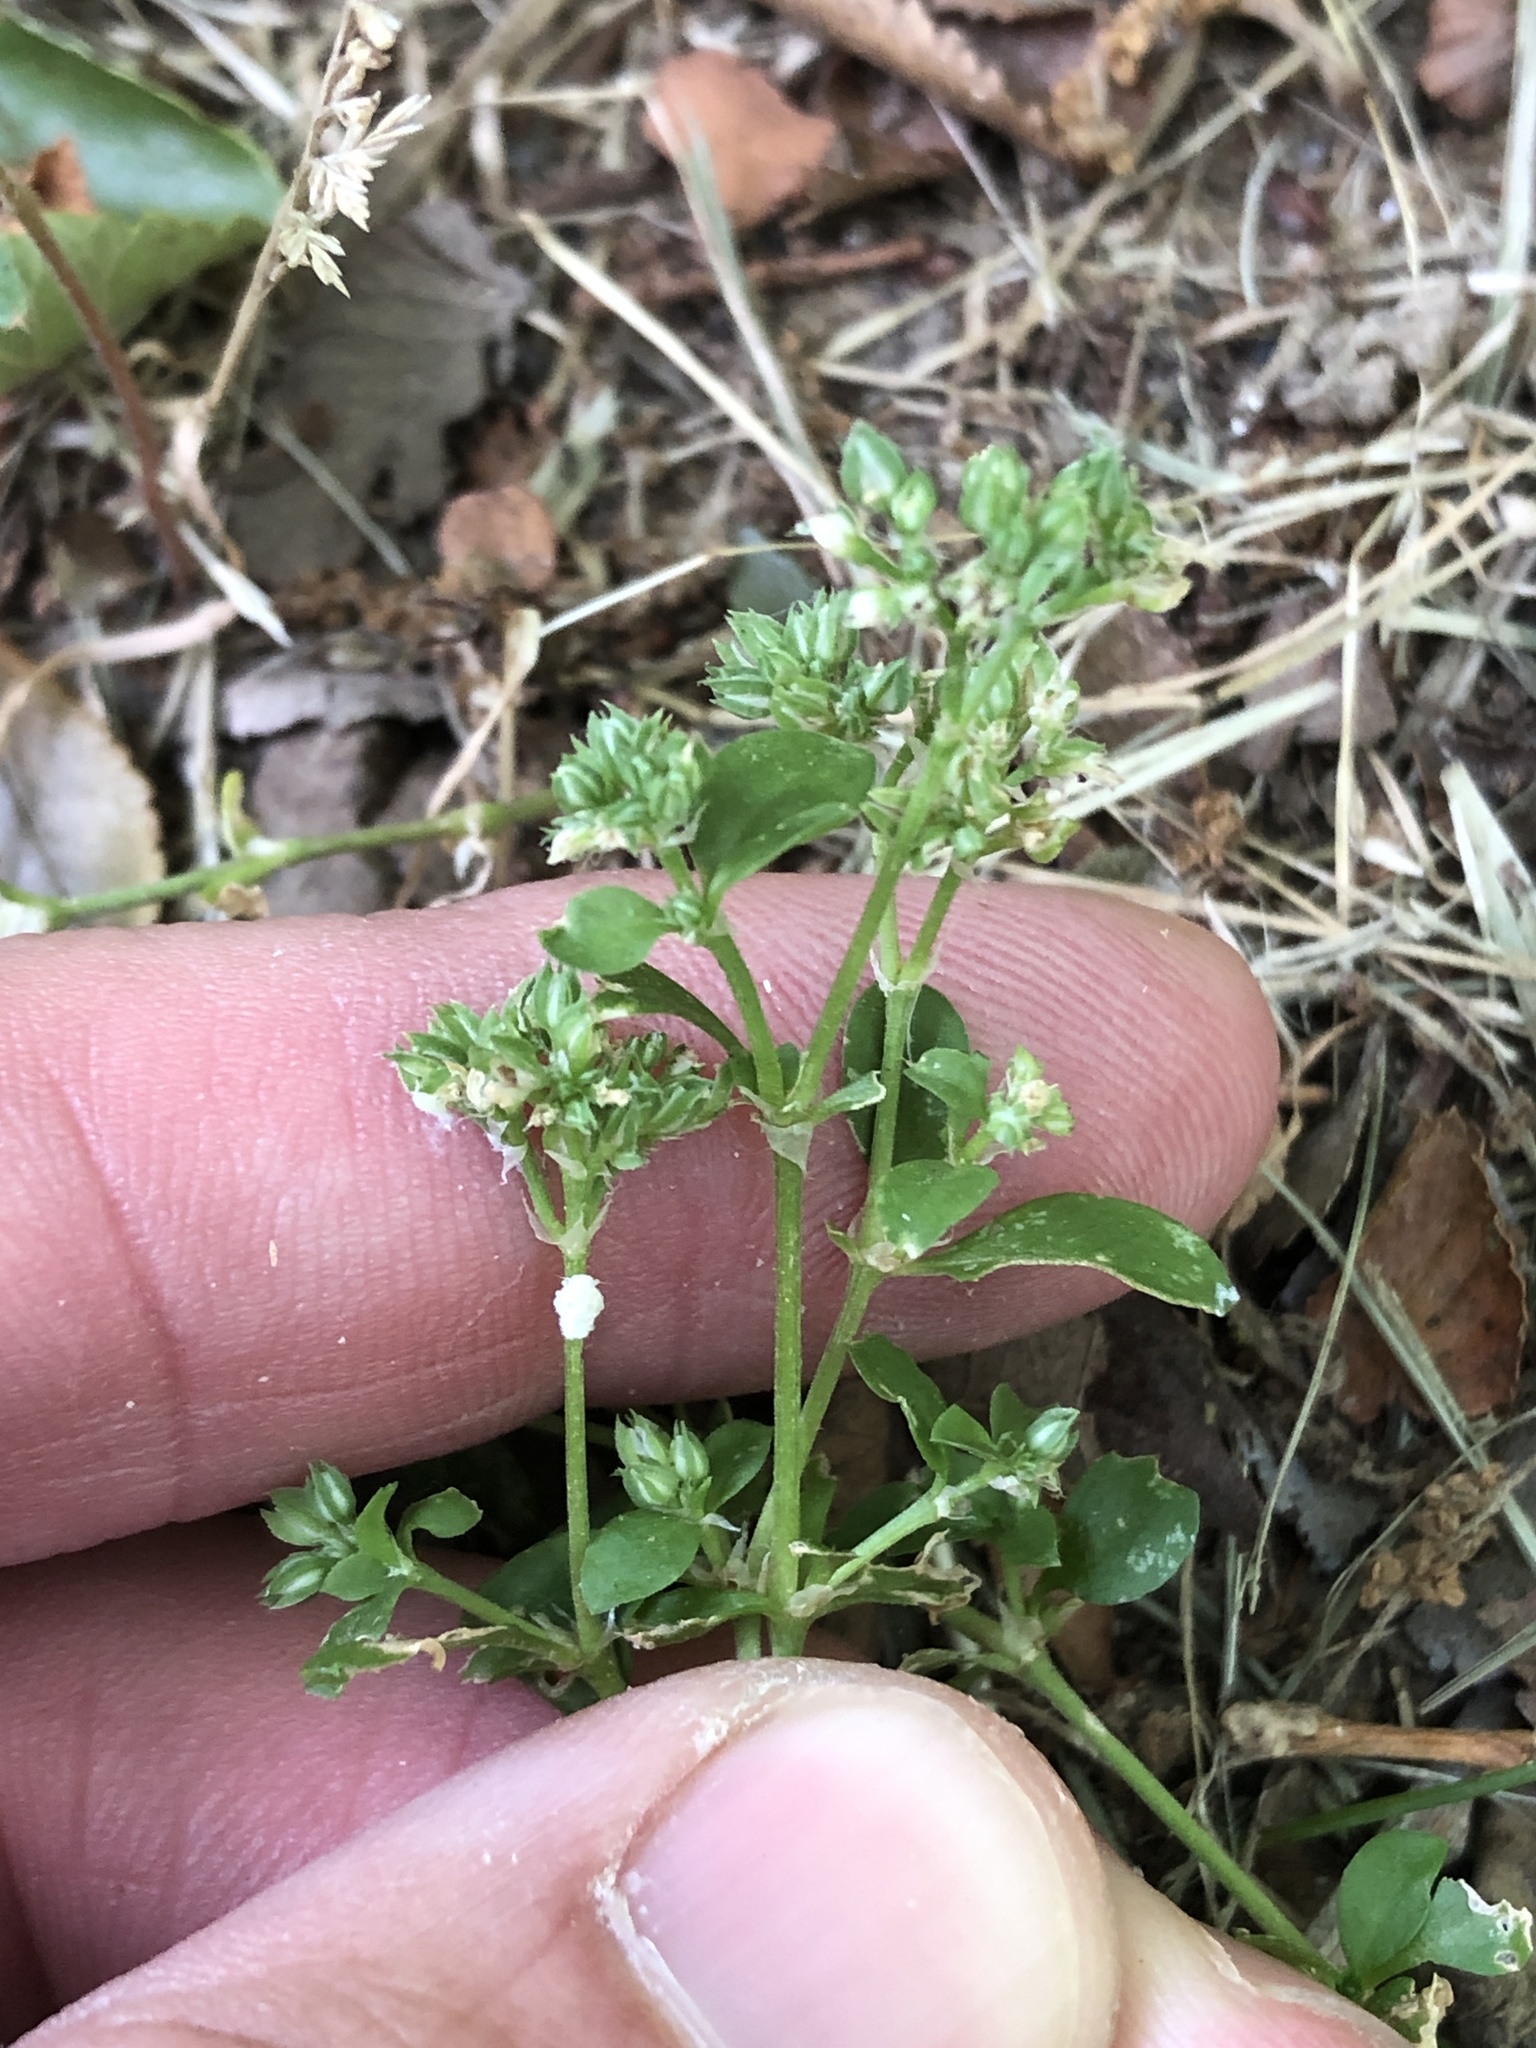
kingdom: Plantae
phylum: Tracheophyta
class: Magnoliopsida
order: Caryophyllales
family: Caryophyllaceae
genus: Polycarpon
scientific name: Polycarpon tetraphyllum
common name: Four-leaved all-seed
